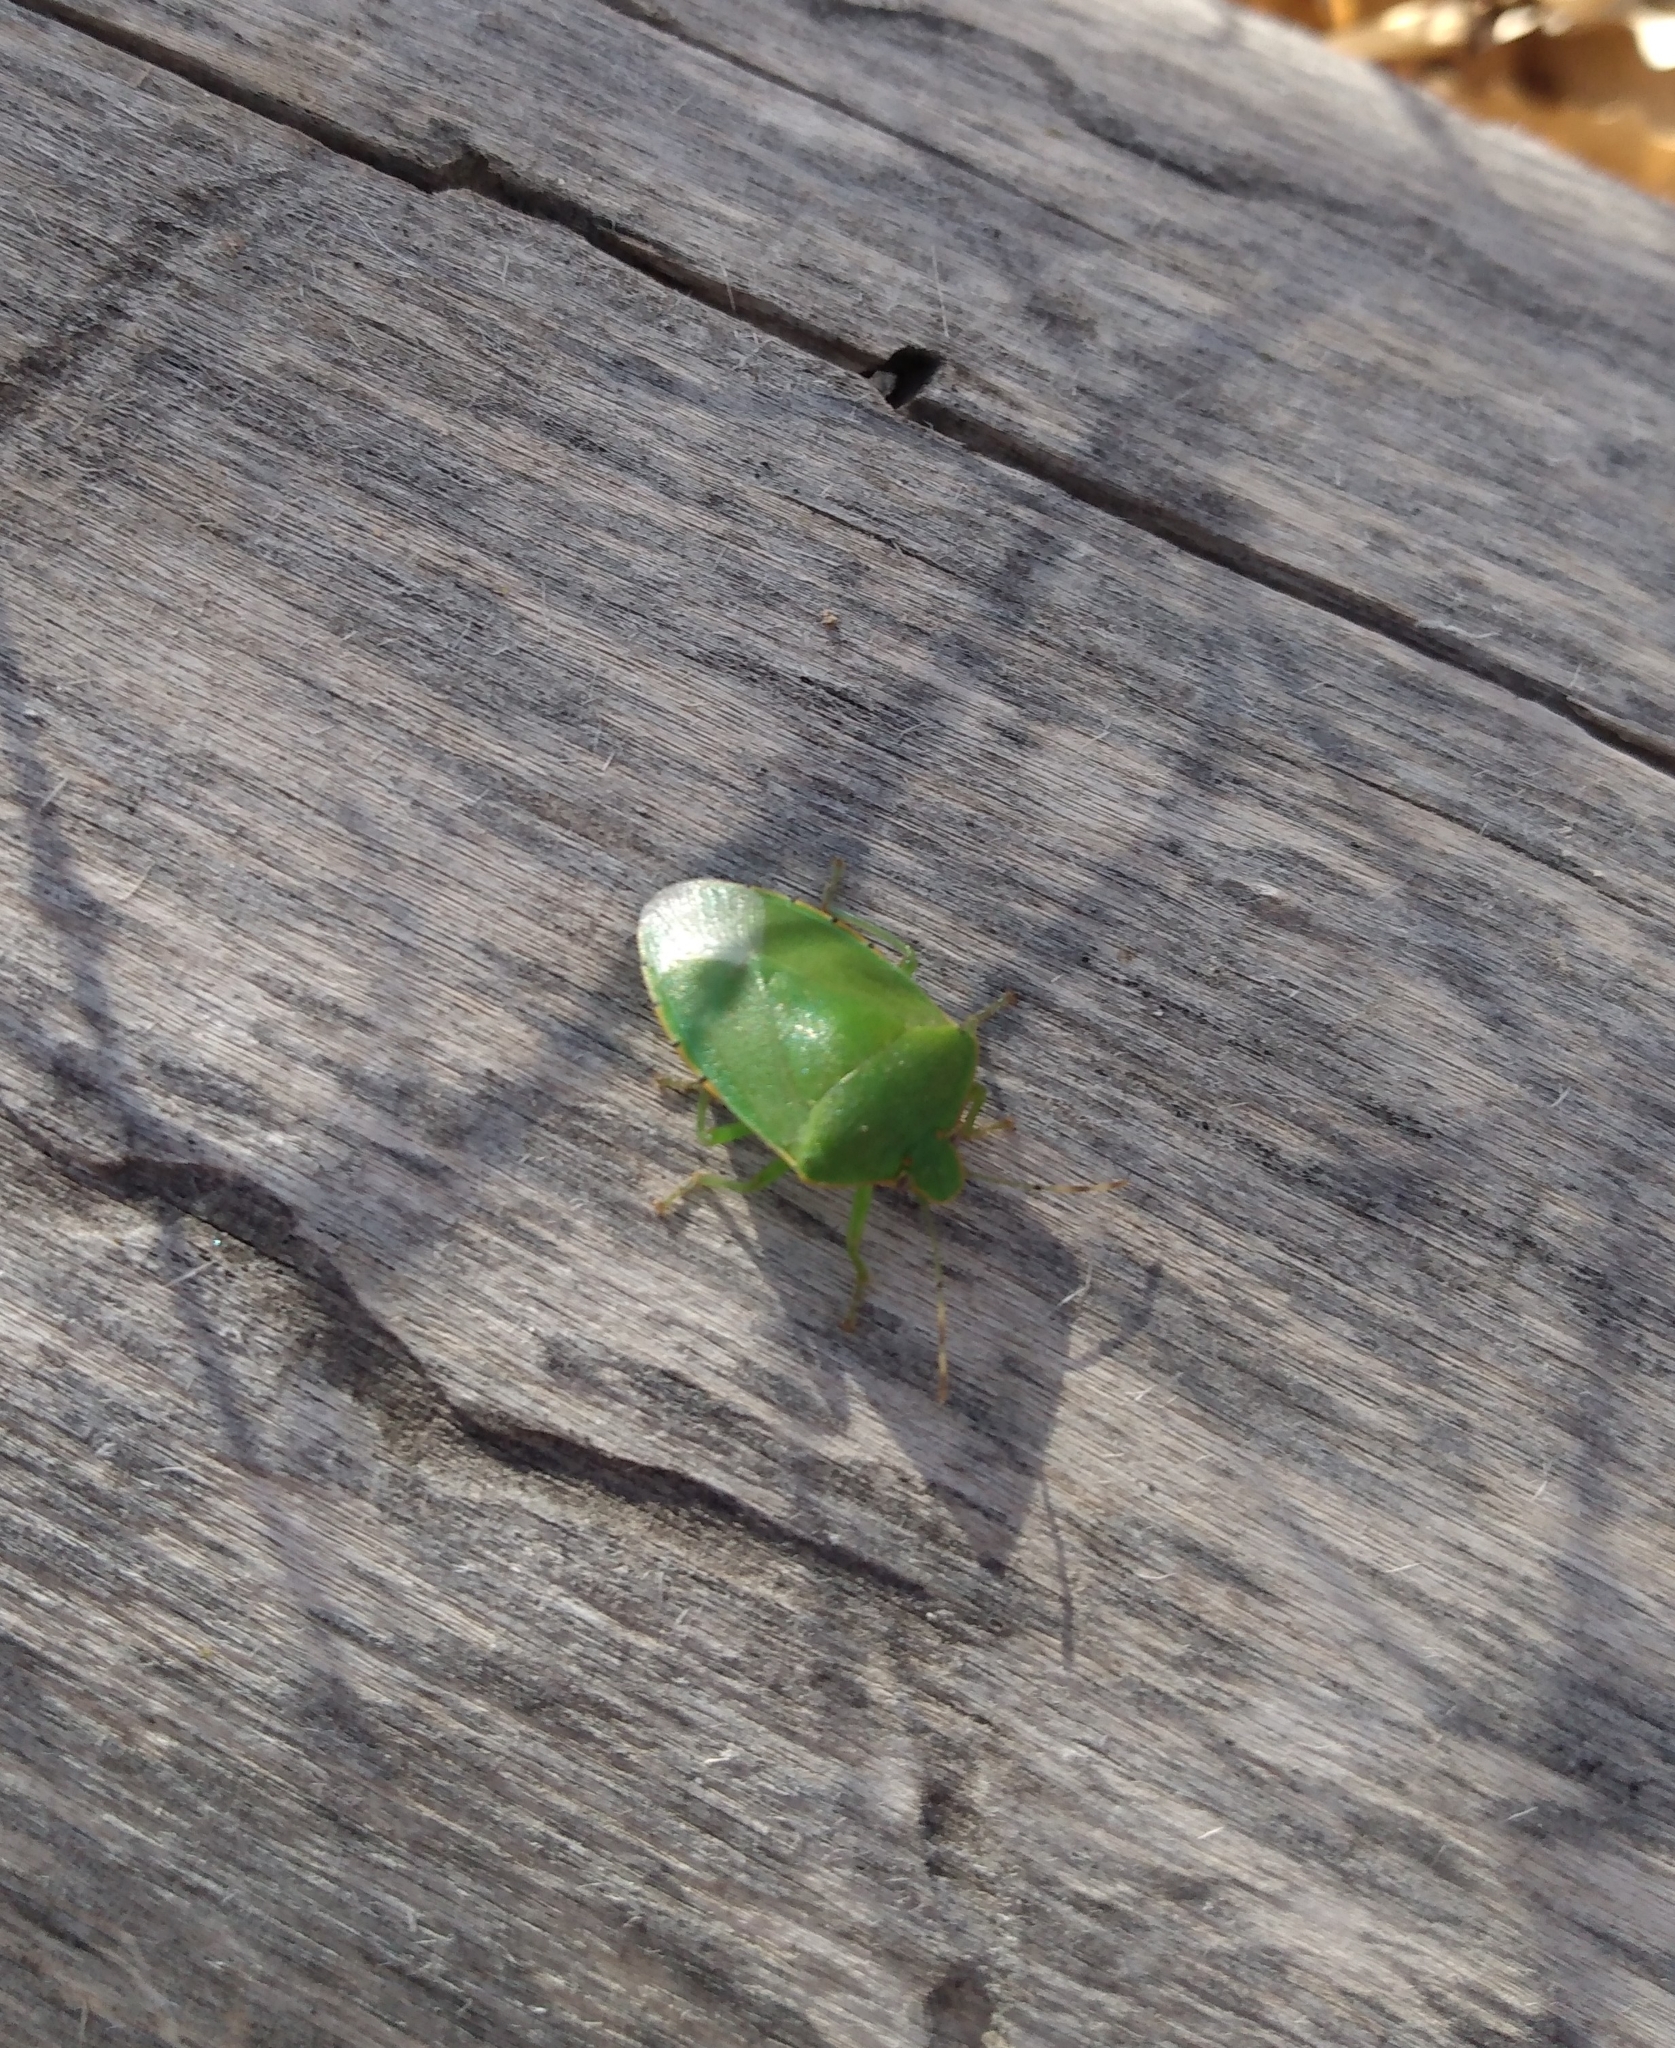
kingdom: Animalia
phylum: Arthropoda
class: Insecta
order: Hemiptera
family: Pentatomidae
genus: Chinavia
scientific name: Chinavia hilaris
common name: Green stink bug
